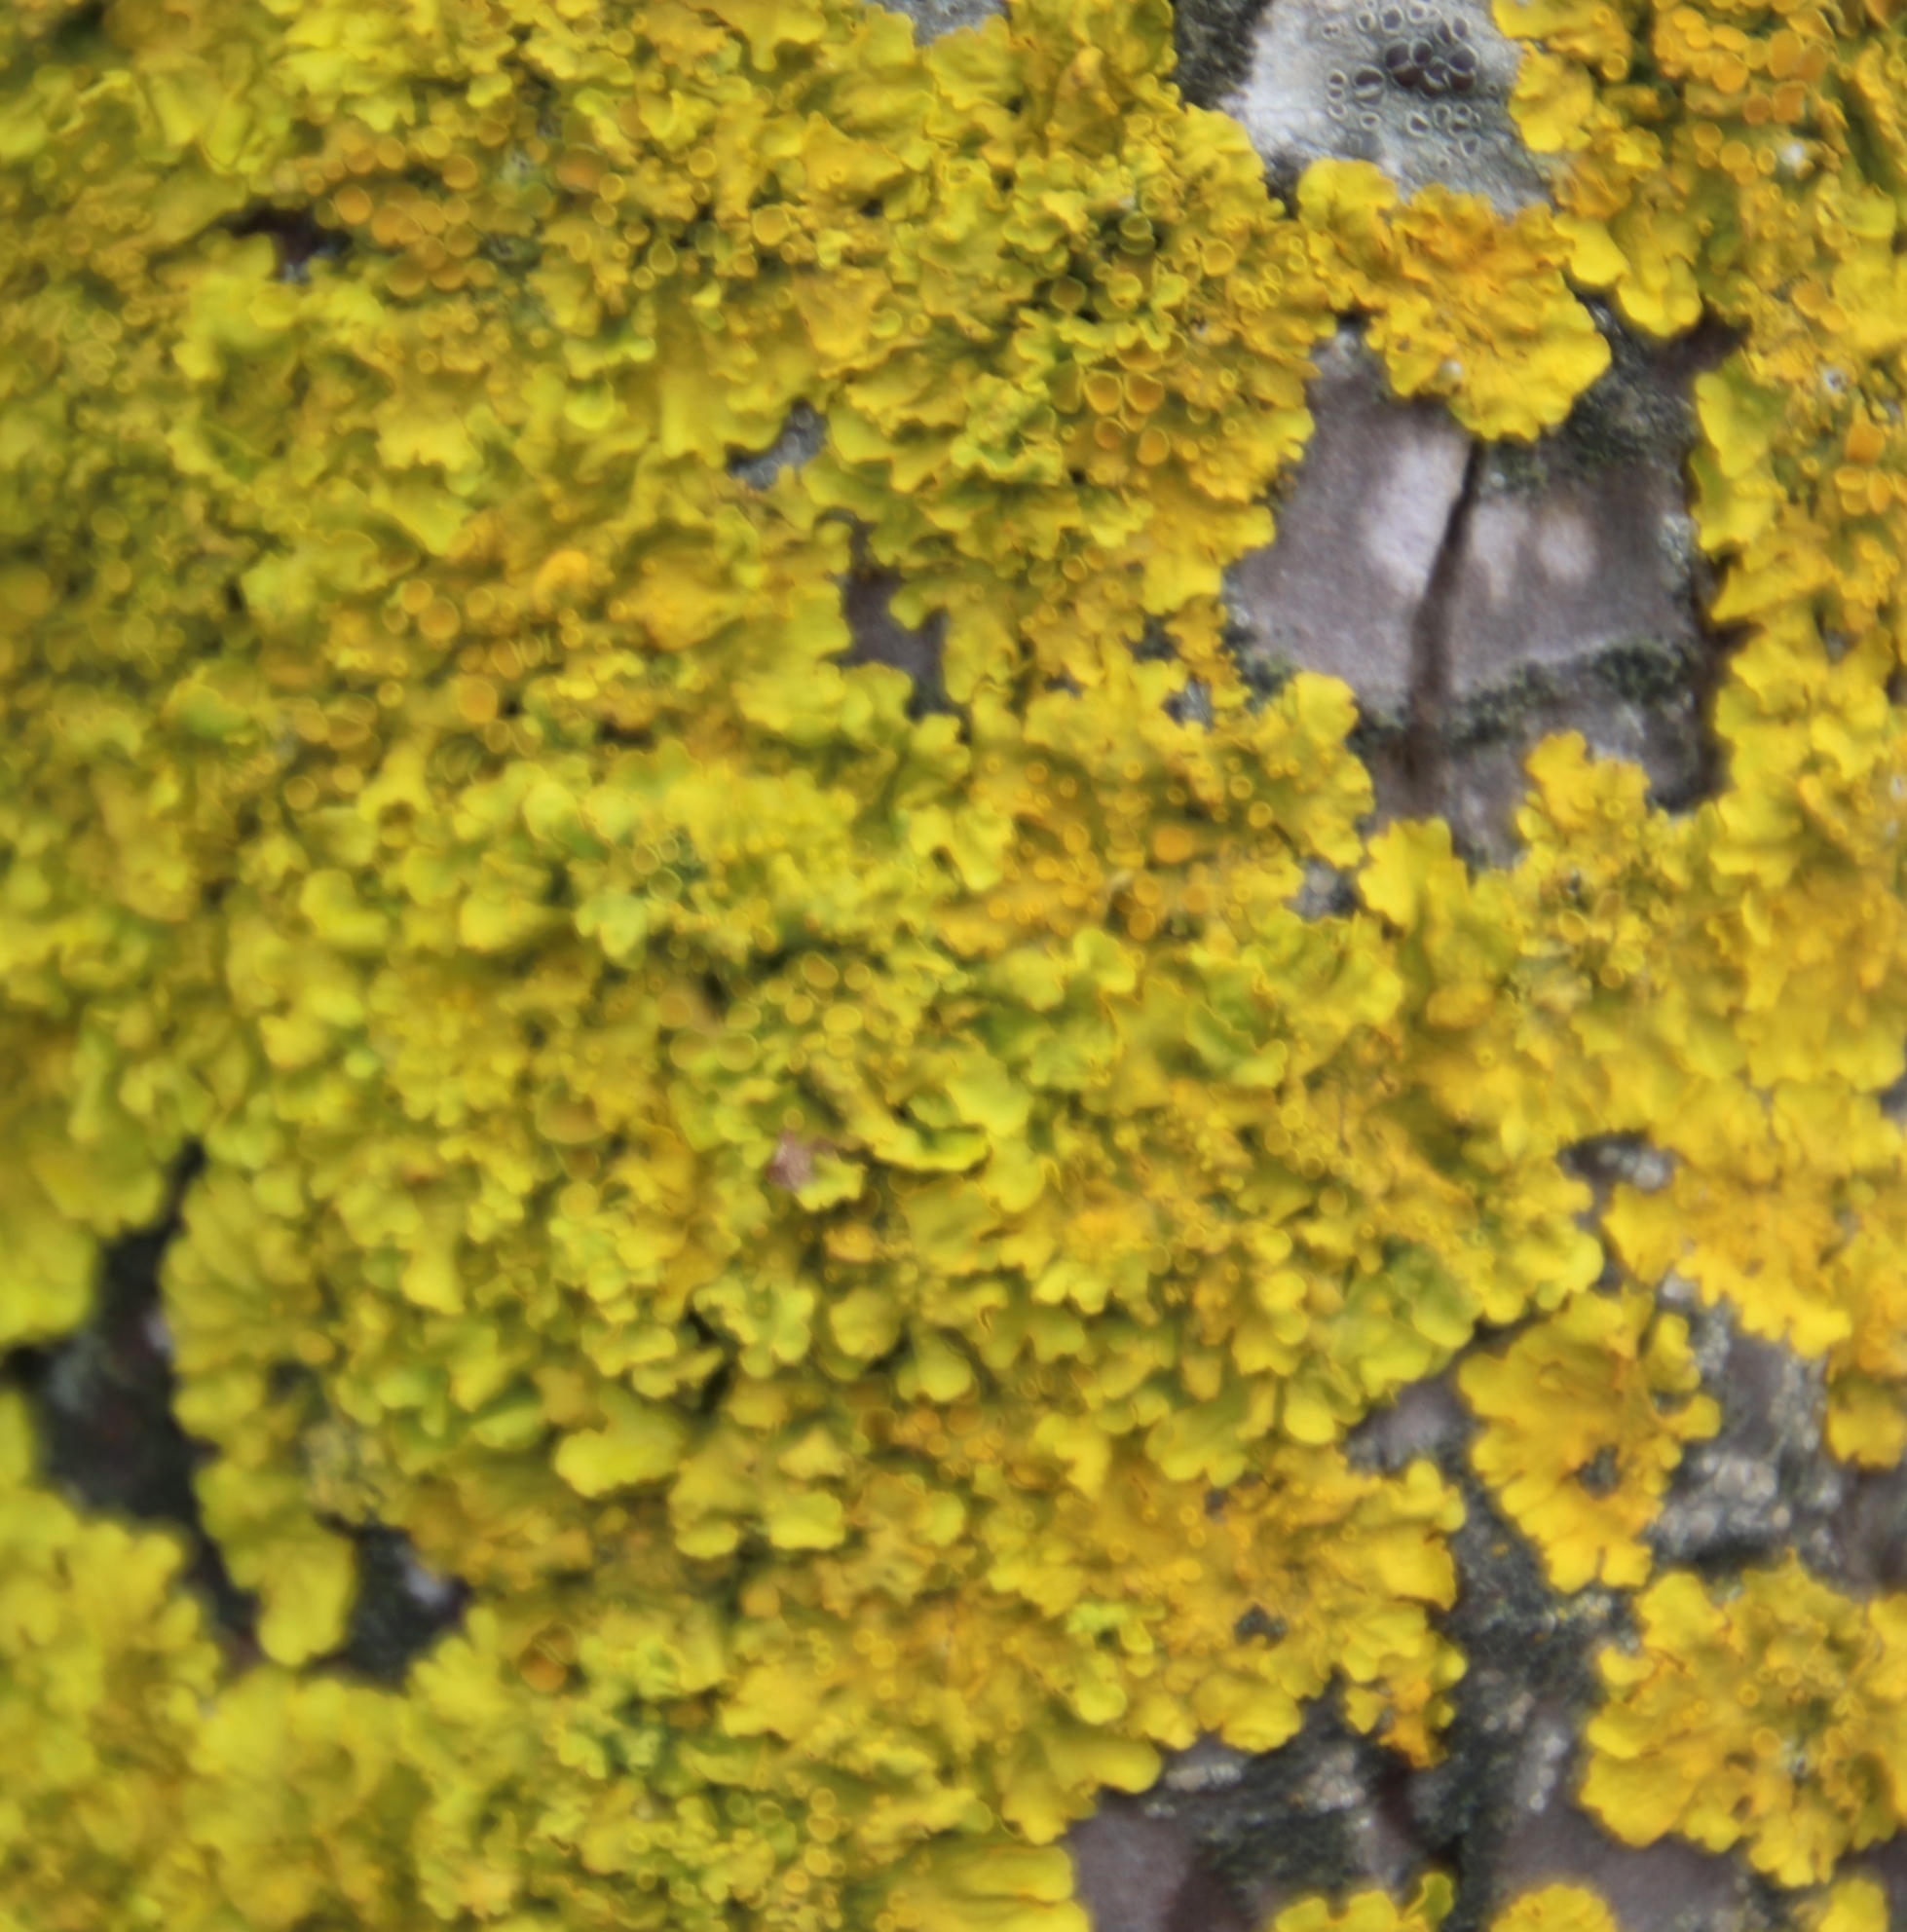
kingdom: Fungi
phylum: Ascomycota
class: Lecanoromycetes
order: Teloschistales
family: Teloschistaceae
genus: Xanthoria
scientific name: Xanthoria parietina
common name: Common orange lichen
